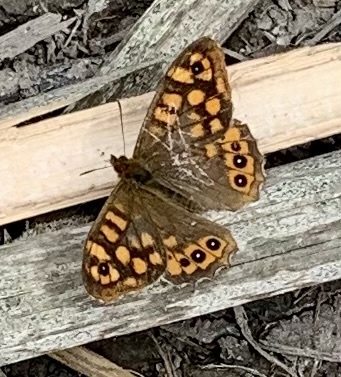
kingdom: Animalia
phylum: Arthropoda
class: Insecta
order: Lepidoptera
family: Nymphalidae
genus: Pararge
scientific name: Pararge aegeria
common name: Speckled wood
